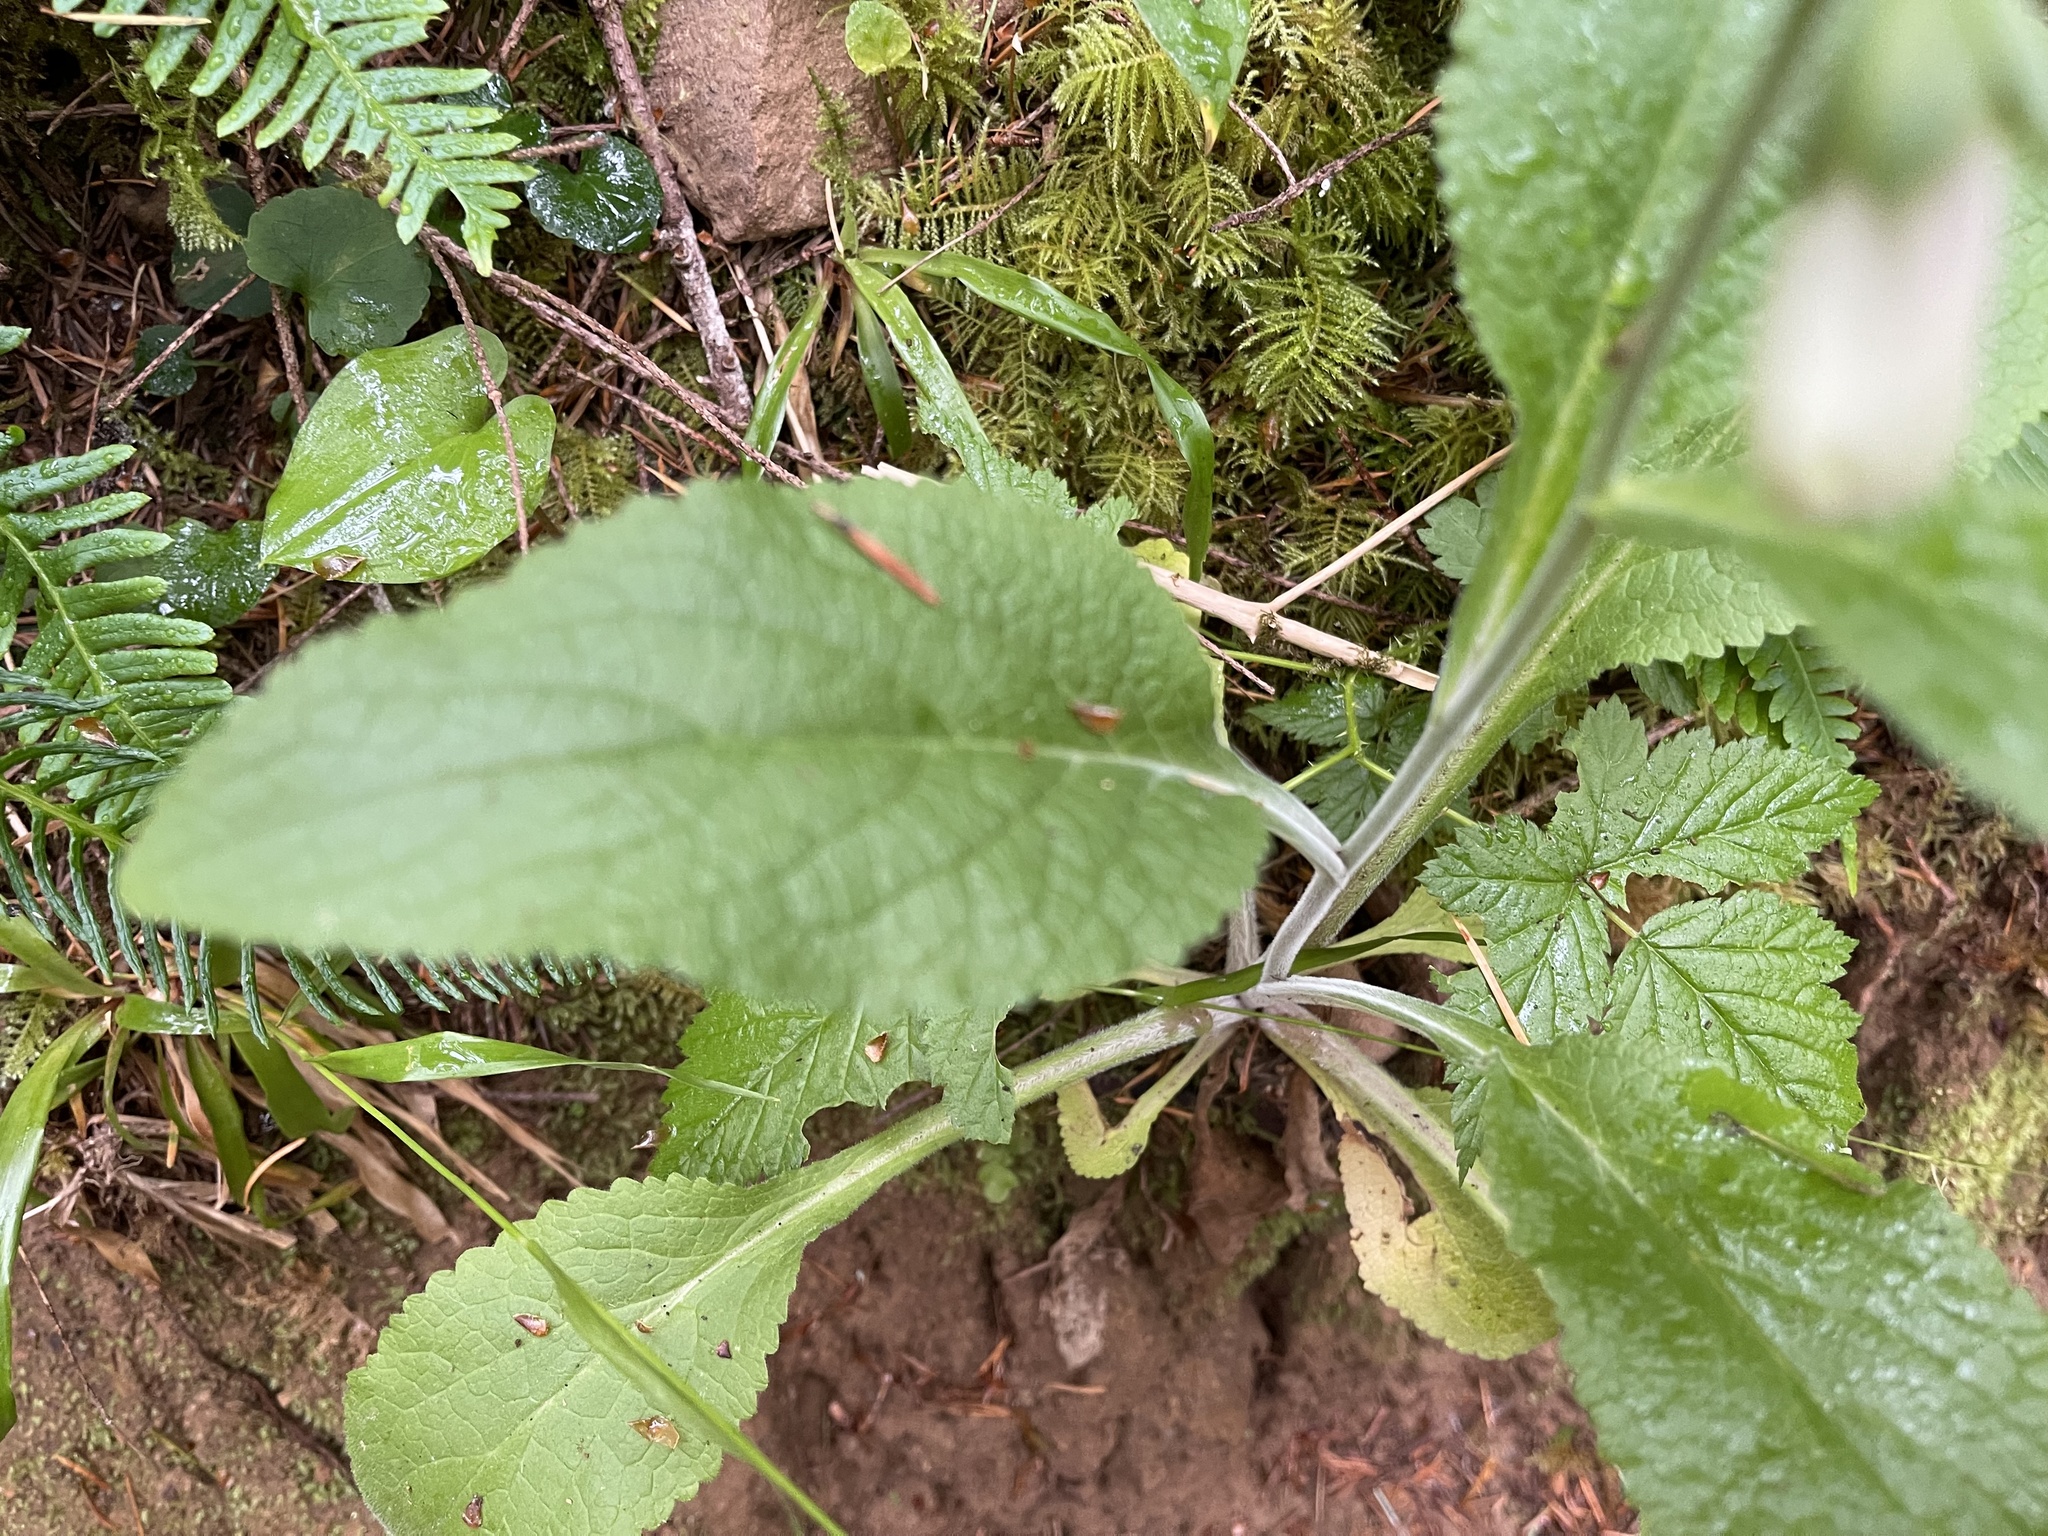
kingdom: Plantae
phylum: Tracheophyta
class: Magnoliopsida
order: Lamiales
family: Plantaginaceae
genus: Digitalis
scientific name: Digitalis purpurea
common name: Foxglove
